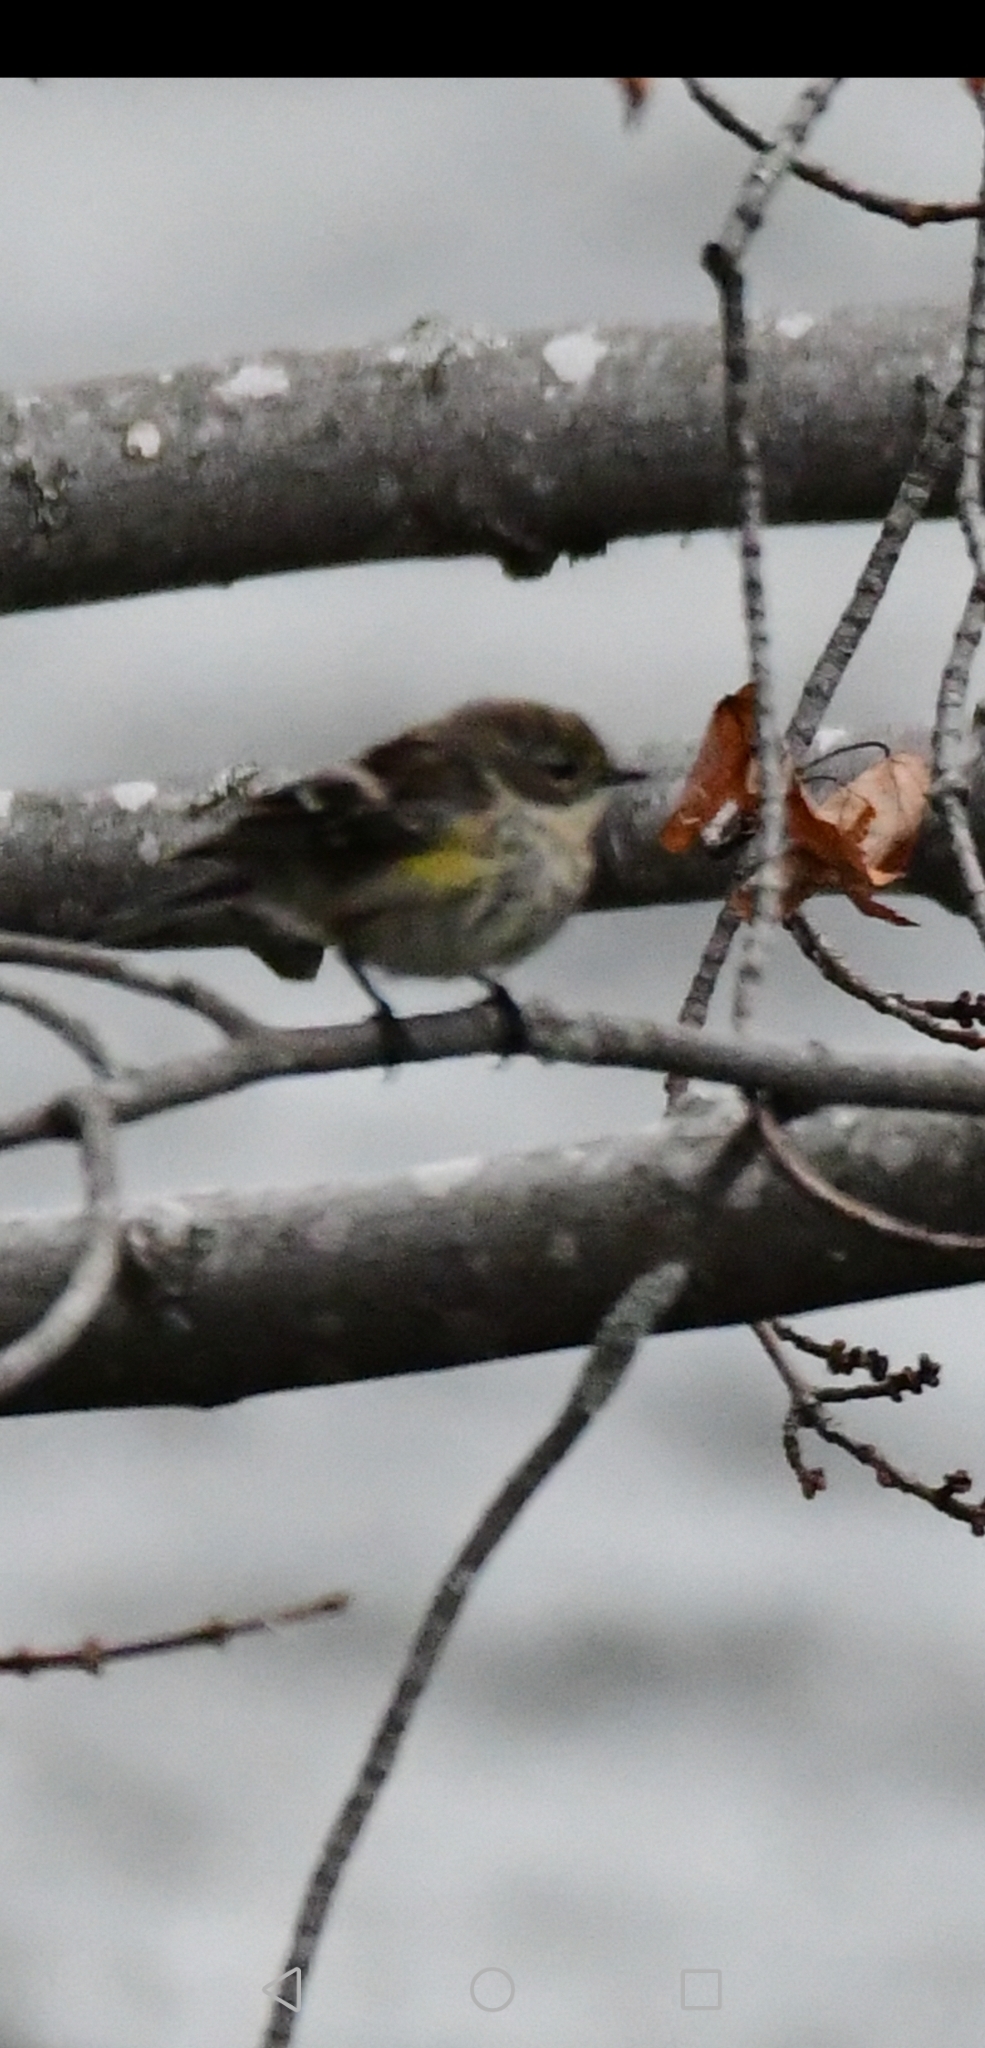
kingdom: Animalia
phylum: Chordata
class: Aves
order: Passeriformes
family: Parulidae
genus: Setophaga
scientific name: Setophaga coronata
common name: Myrtle warbler
